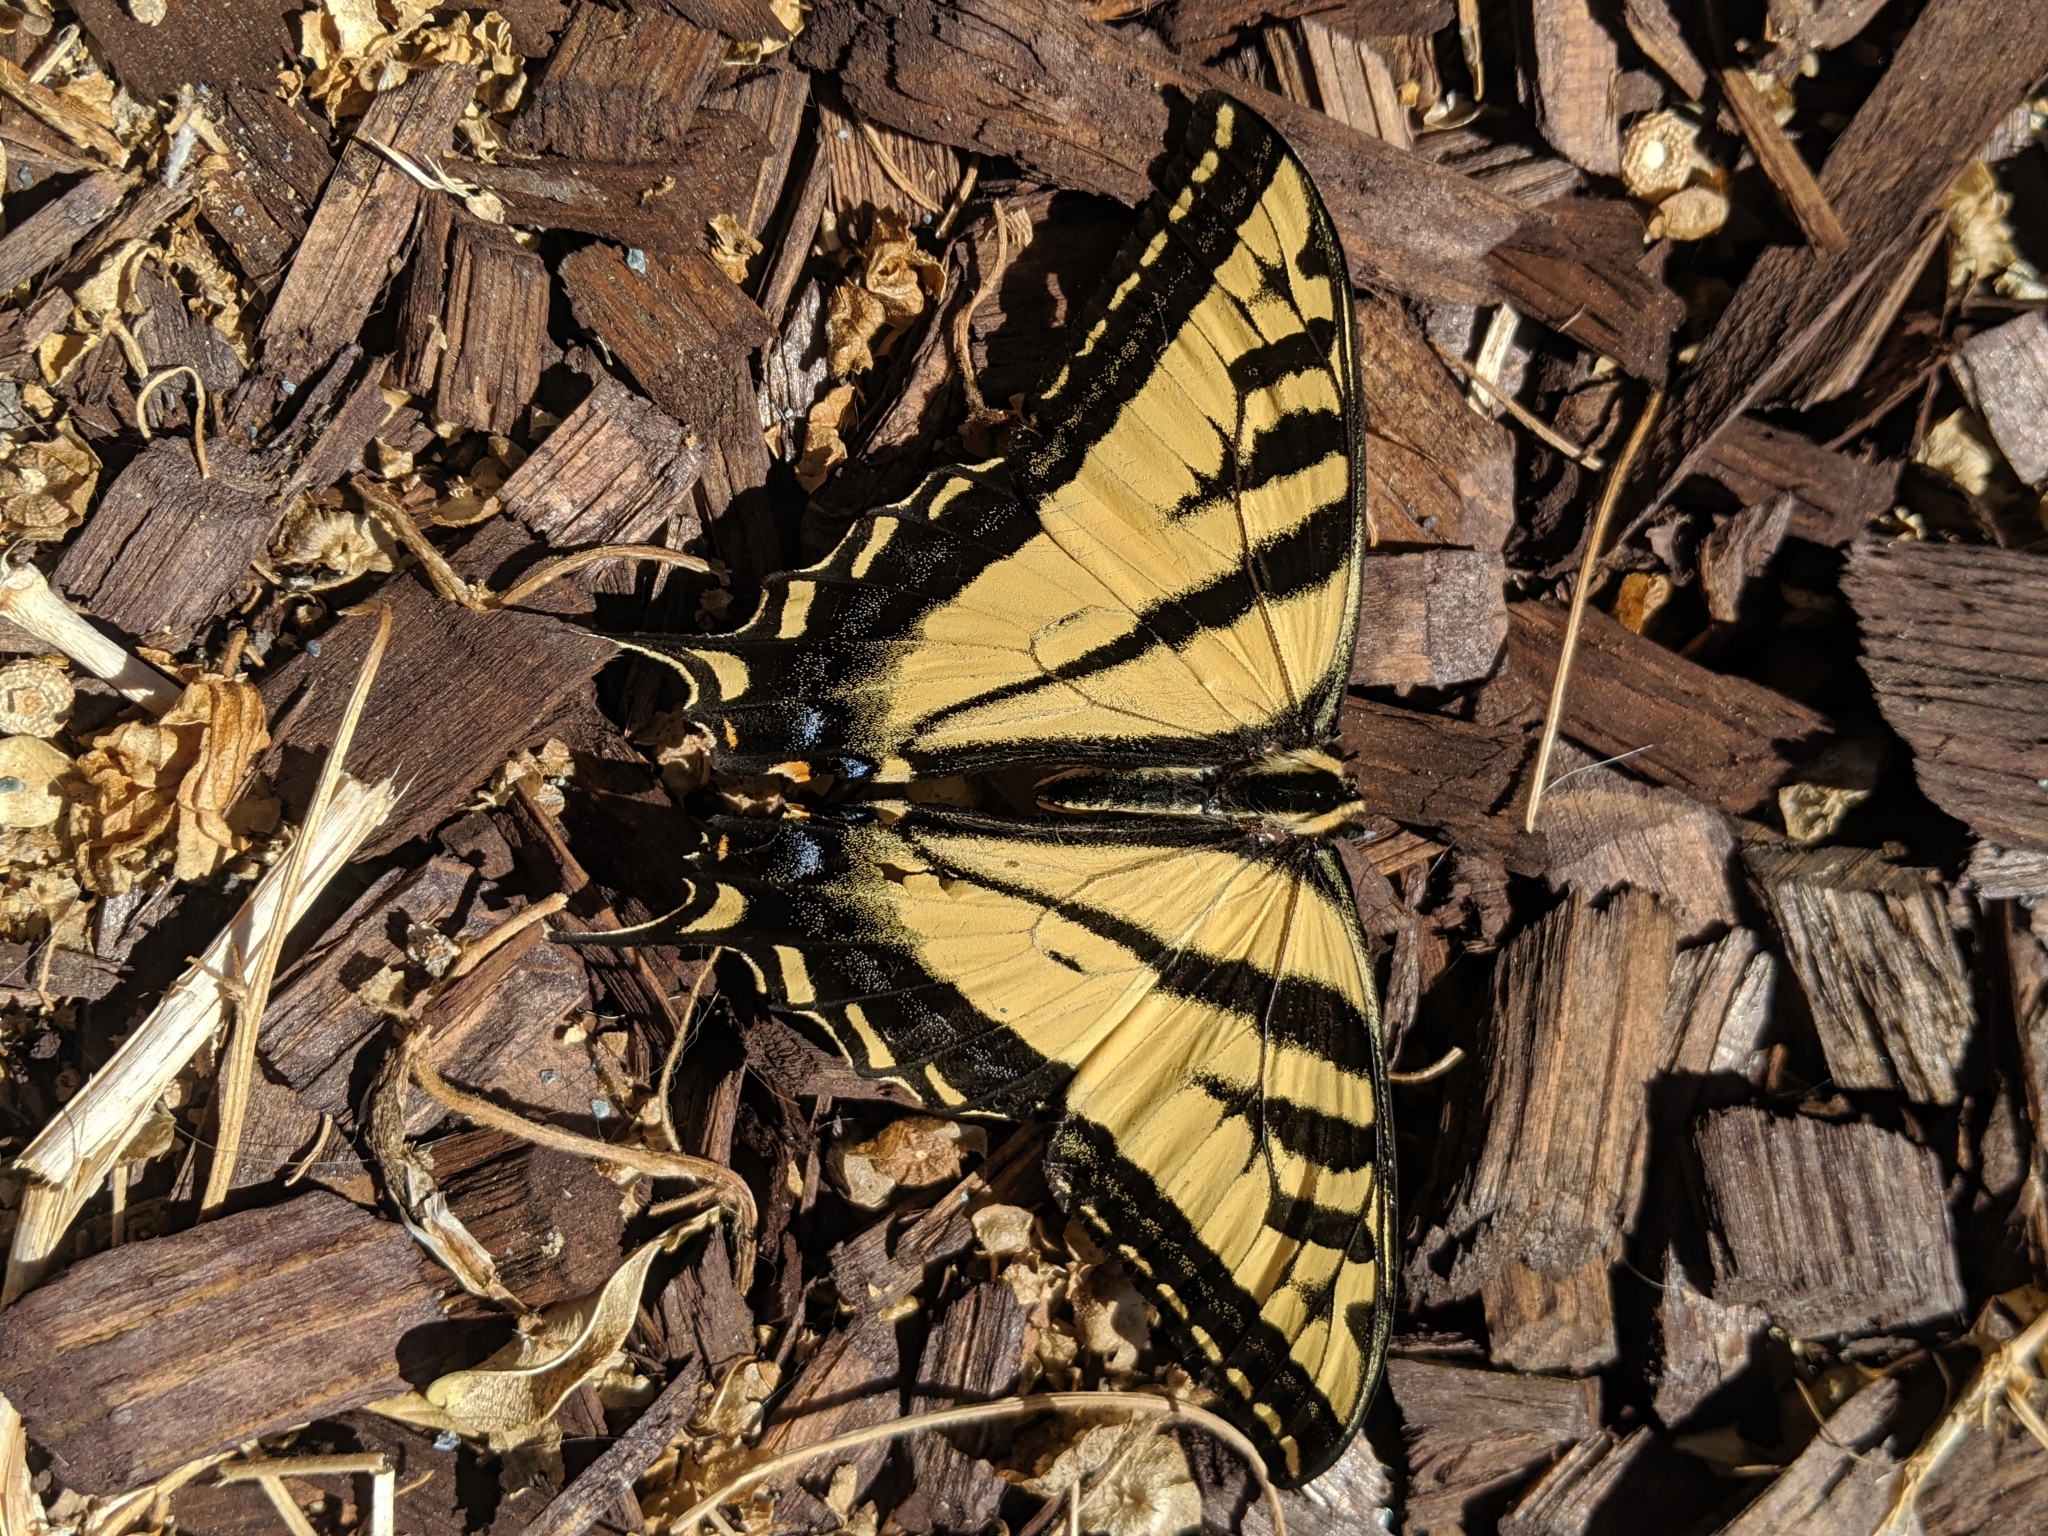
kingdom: Animalia
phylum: Arthropoda
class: Insecta
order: Lepidoptera
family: Papilionidae
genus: Papilio
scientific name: Papilio rutulus
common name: Western tiger swallowtail
